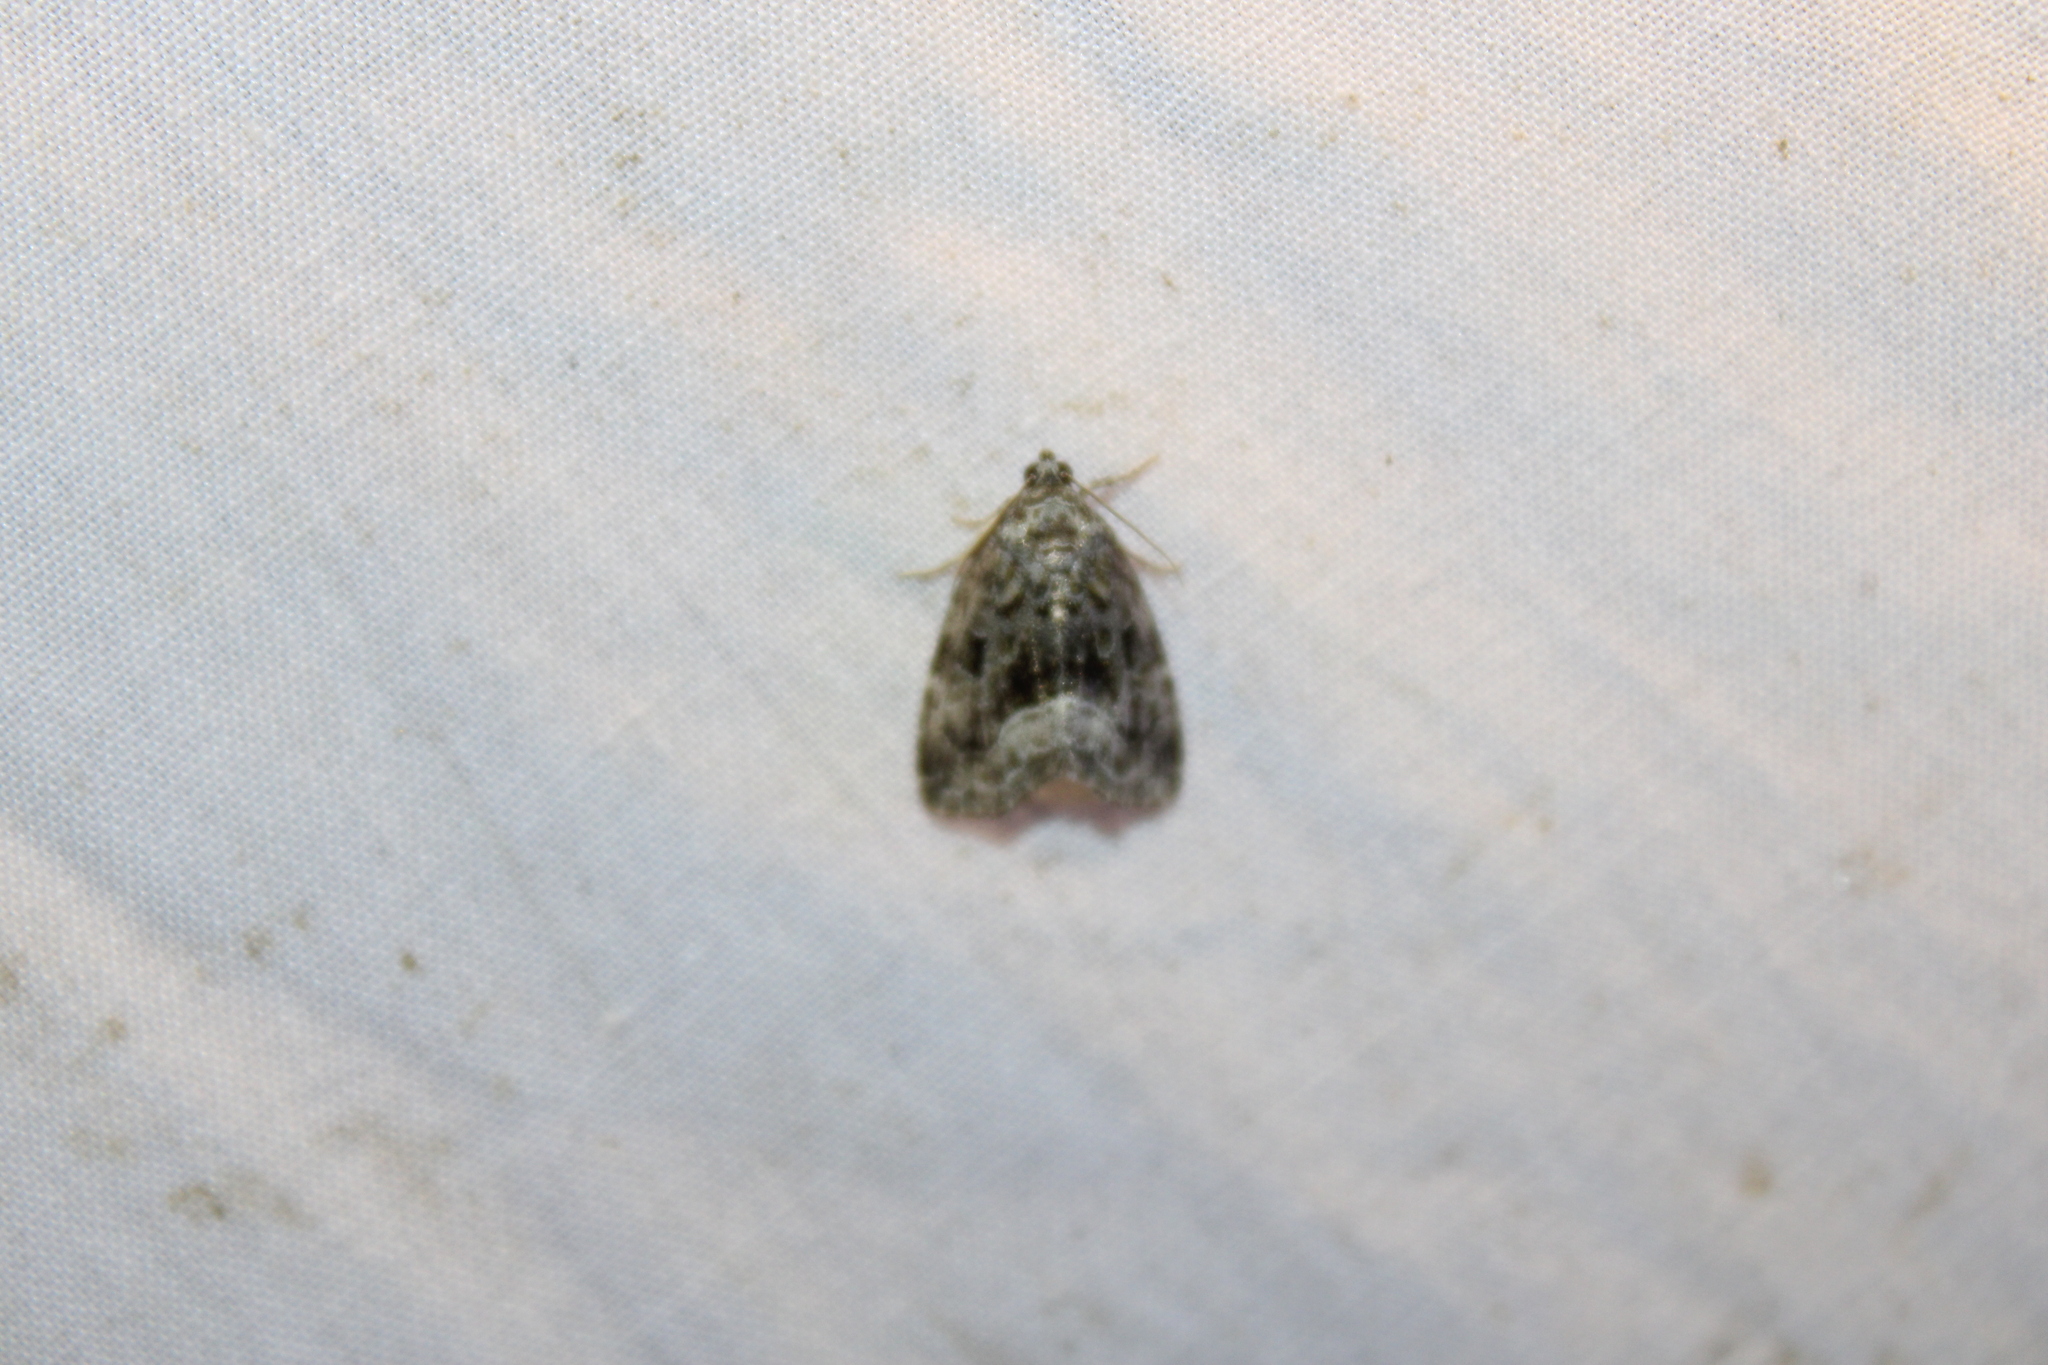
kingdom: Animalia
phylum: Arthropoda
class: Insecta
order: Lepidoptera
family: Noctuidae
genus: Protodeltote
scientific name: Protodeltote muscosula
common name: Large mossy glyph
